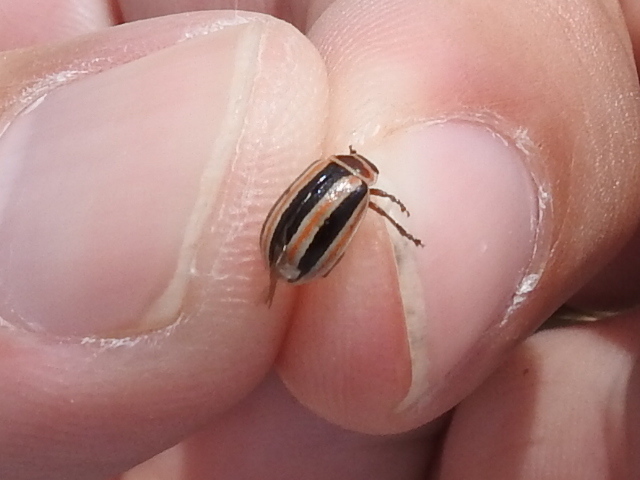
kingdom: Animalia
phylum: Arthropoda
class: Insecta
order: Coleoptera
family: Chrysomelidae
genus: Kuschelina
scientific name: Kuschelina miniata
